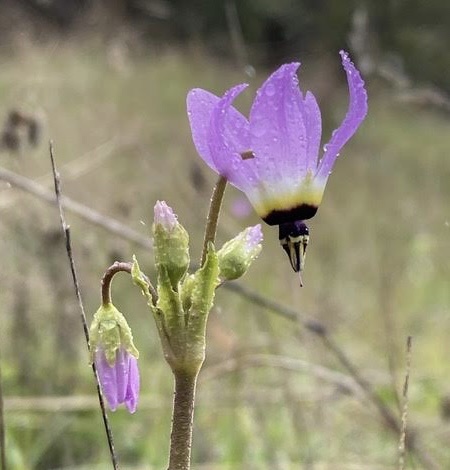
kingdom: Plantae
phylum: Tracheophyta
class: Magnoliopsida
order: Ericales
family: Primulaceae
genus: Dodecatheon
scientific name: Dodecatheon clevelandii
